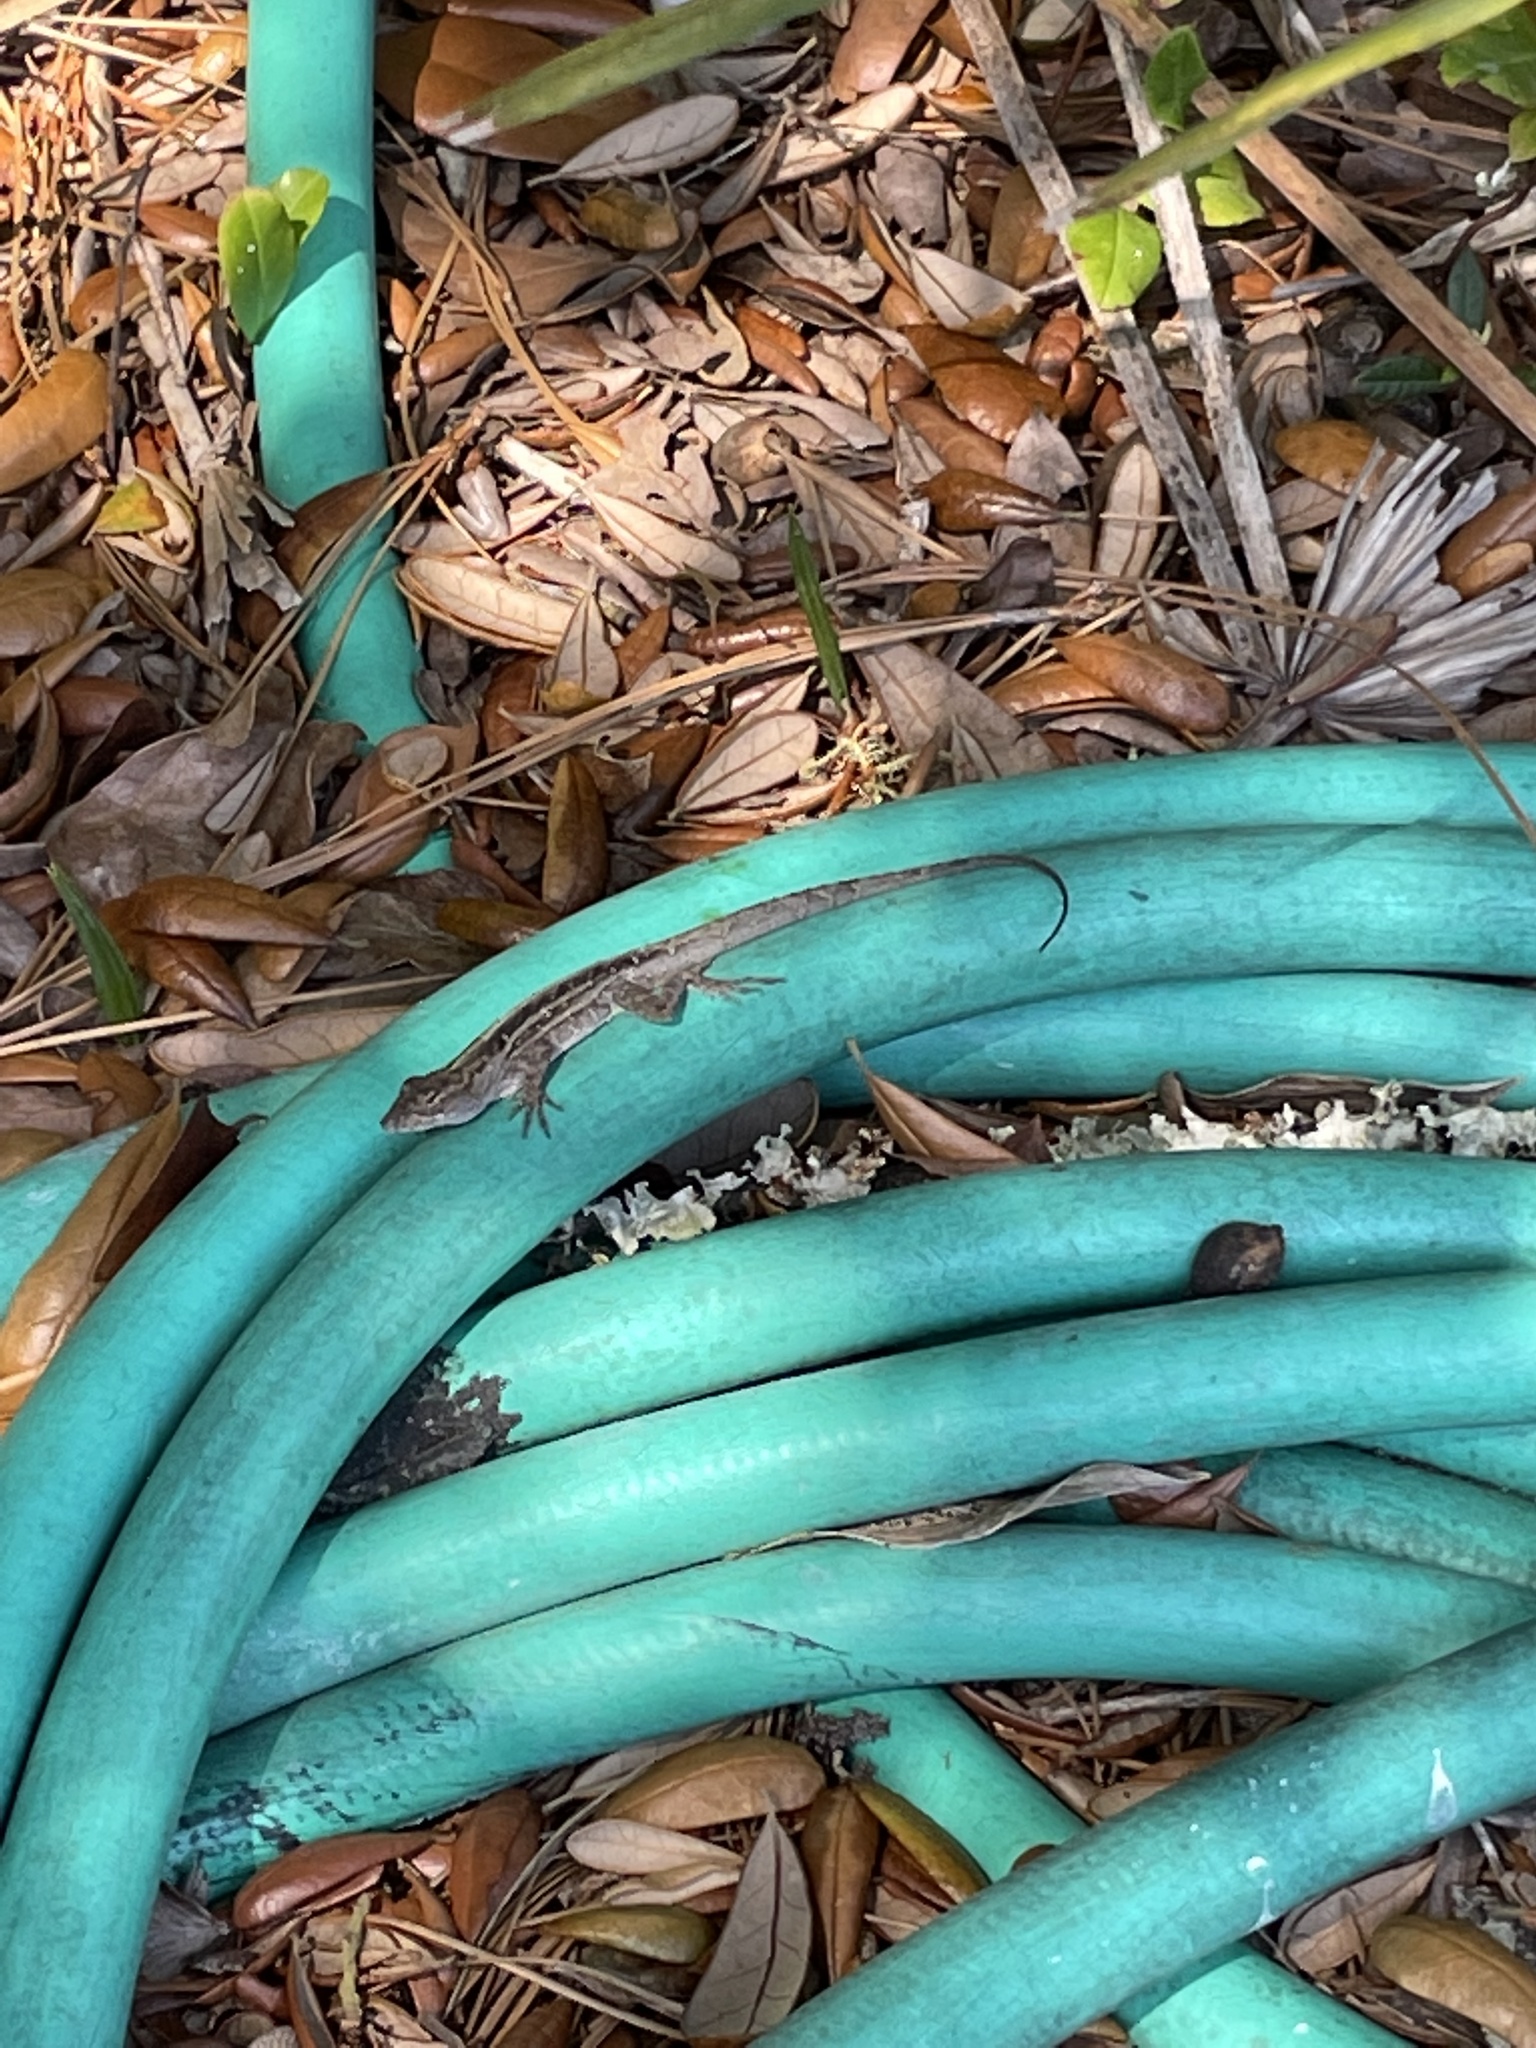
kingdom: Animalia
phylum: Chordata
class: Squamata
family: Dactyloidae
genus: Anolis
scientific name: Anolis sagrei
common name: Brown anole
